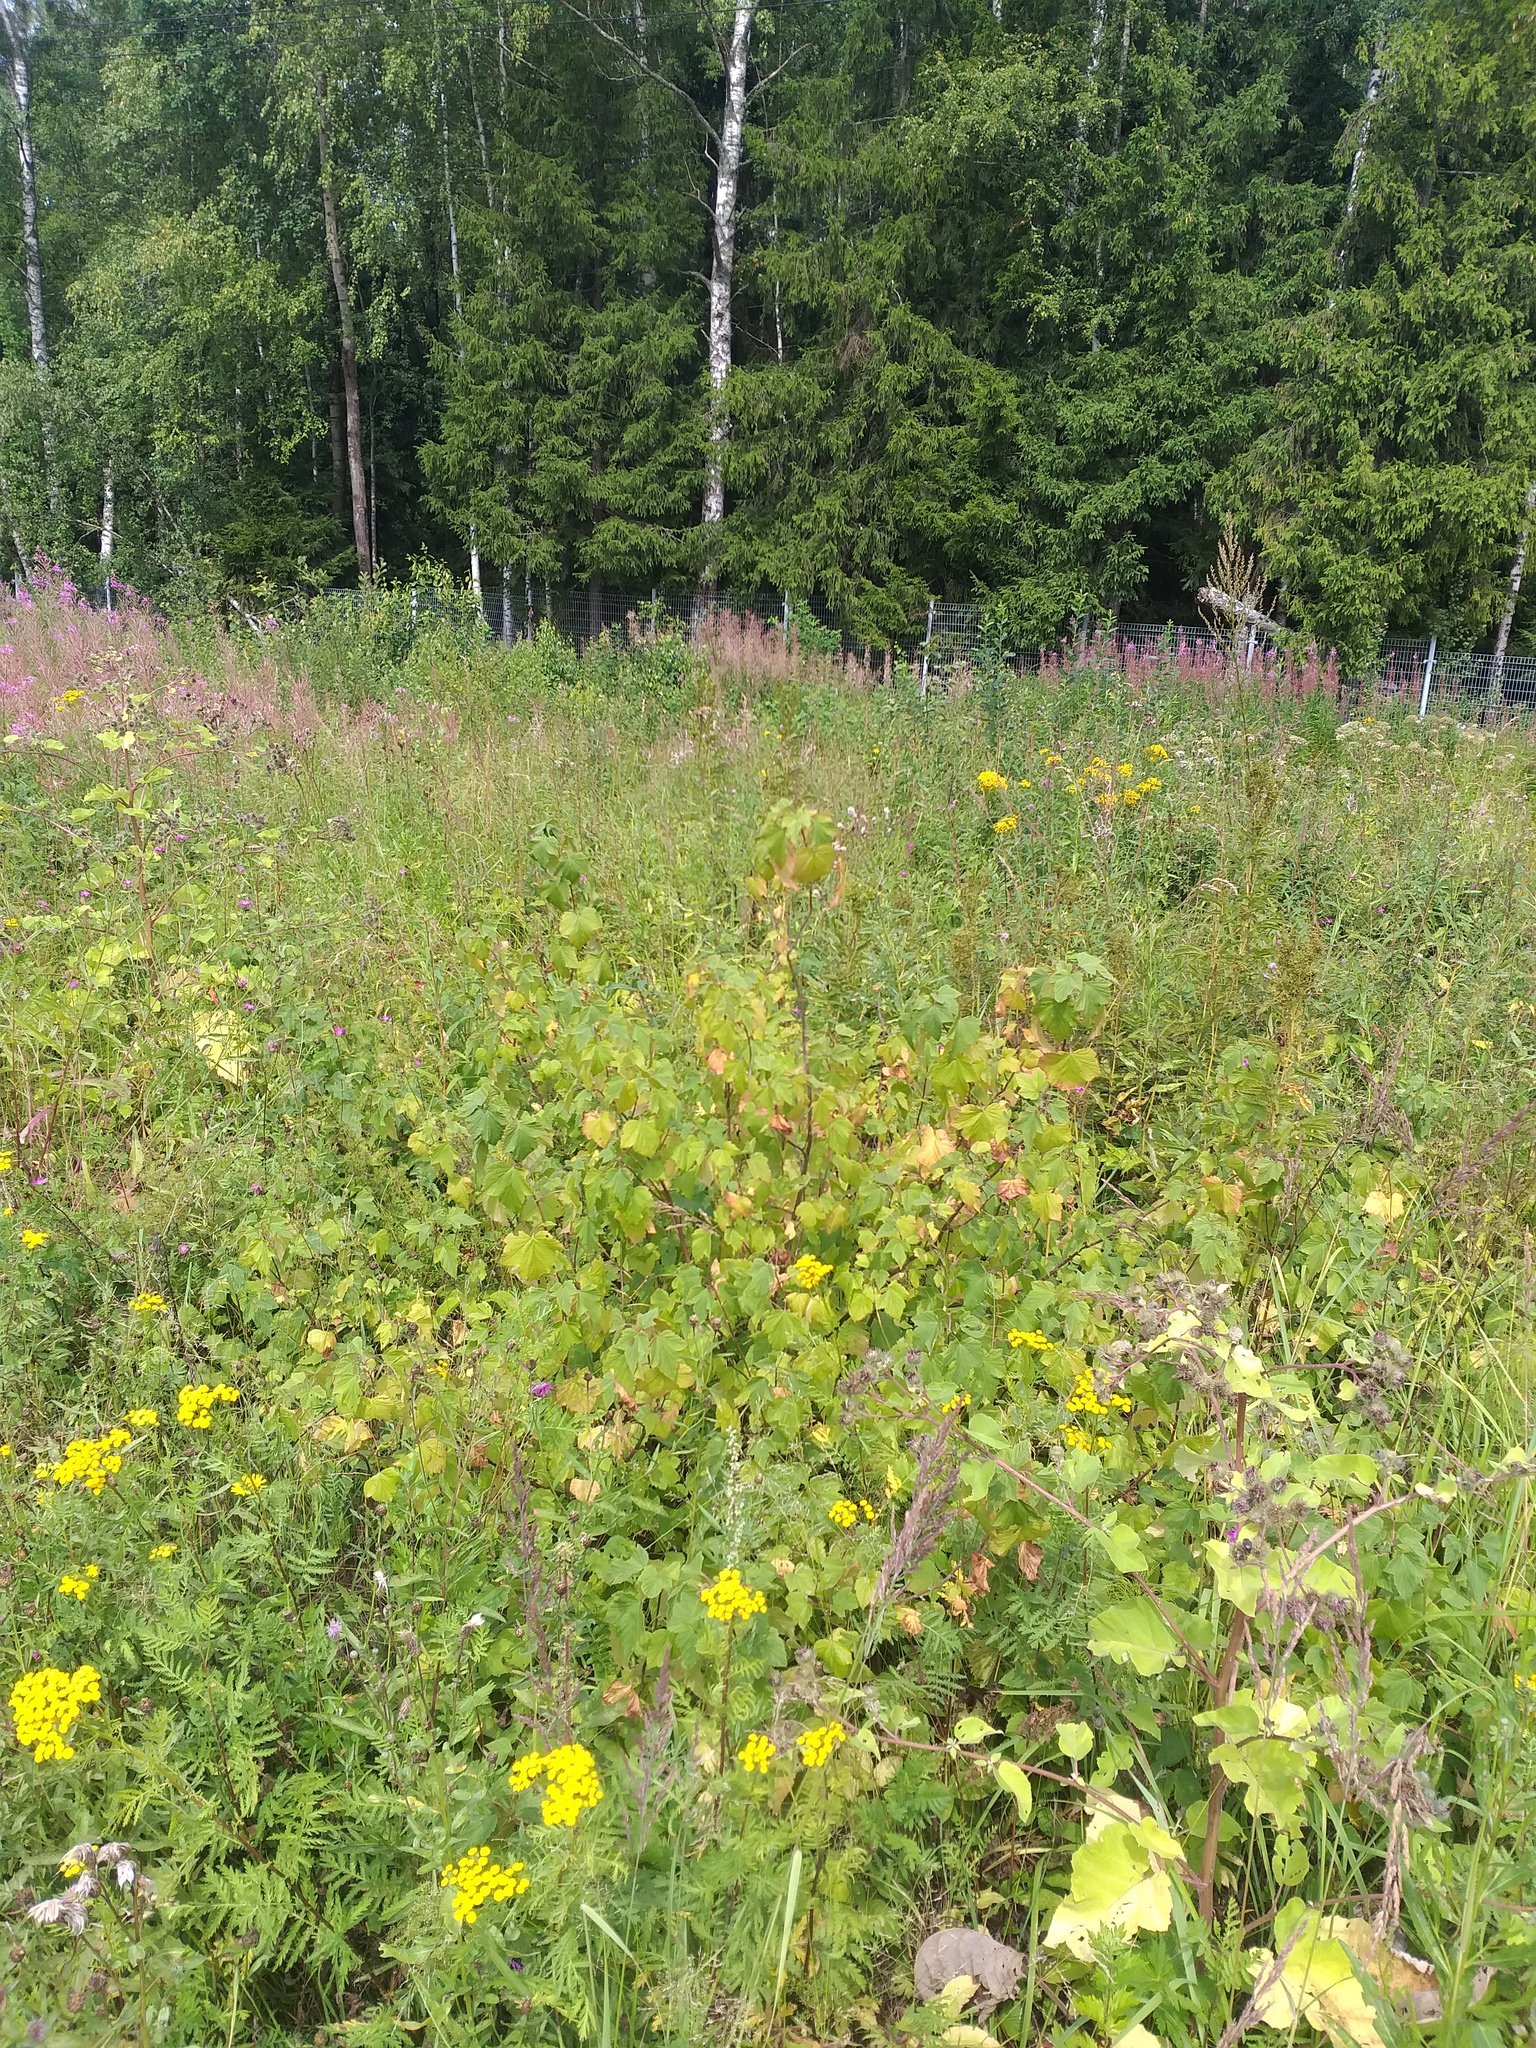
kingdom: Plantae
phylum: Tracheophyta
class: Magnoliopsida
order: Saxifragales
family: Grossulariaceae
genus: Ribes
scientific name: Ribes nigrum
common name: Black currant
